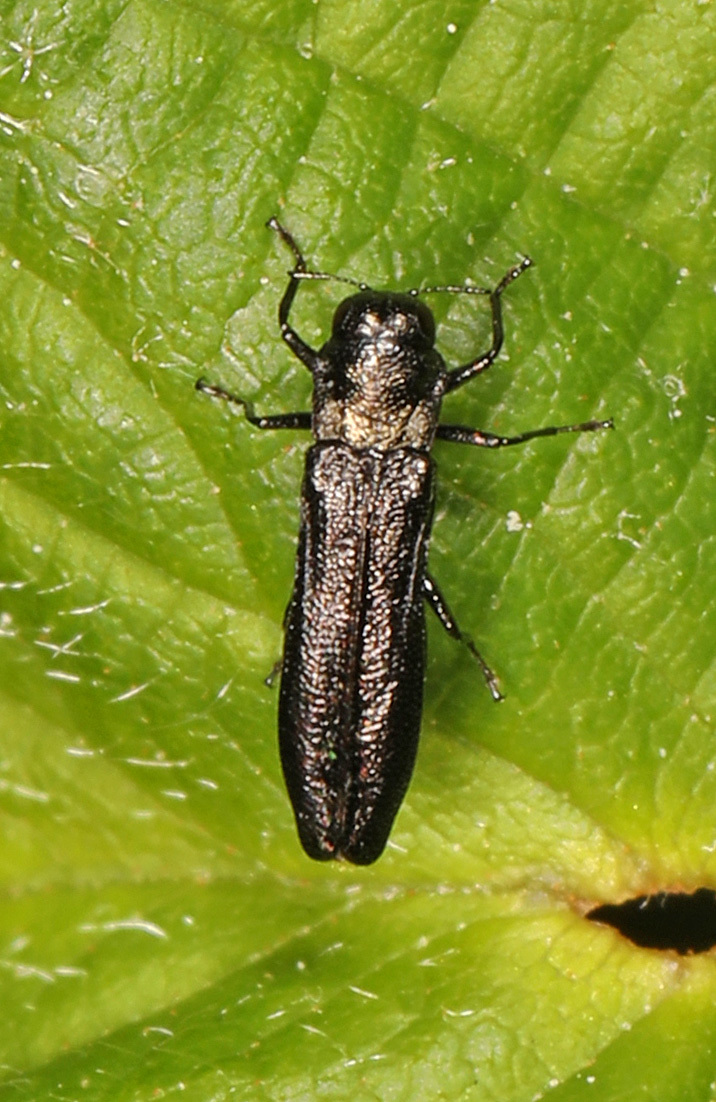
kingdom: Animalia
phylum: Arthropoda
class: Insecta
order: Coleoptera
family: Buprestidae
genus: Paragrilus
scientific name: Paragrilus tenuis
